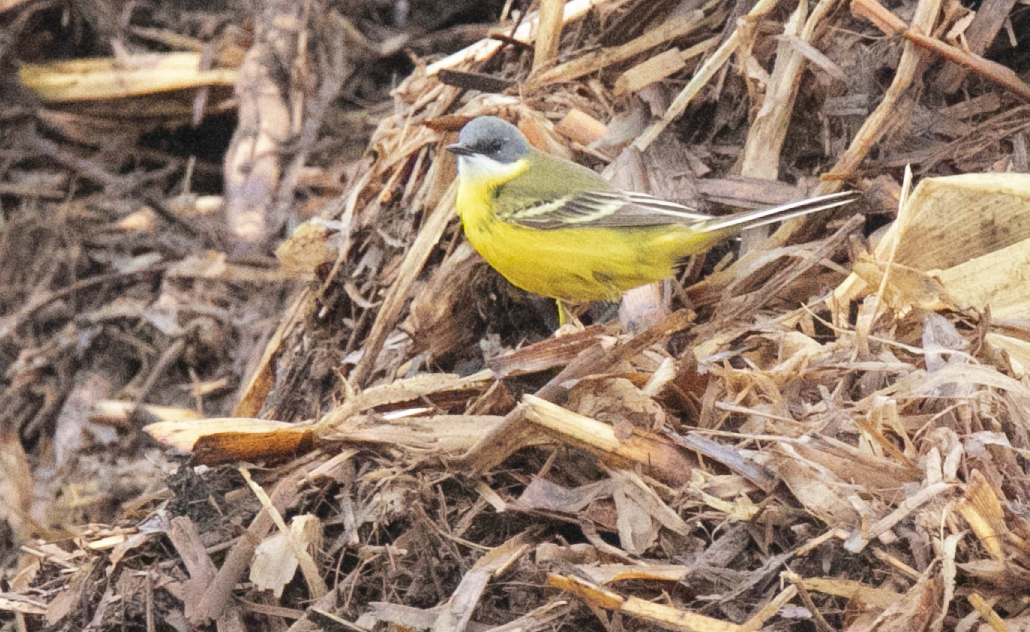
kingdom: Animalia
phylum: Chordata
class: Aves
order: Passeriformes
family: Motacillidae
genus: Motacilla
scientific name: Motacilla flava
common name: Western yellow wagtail
